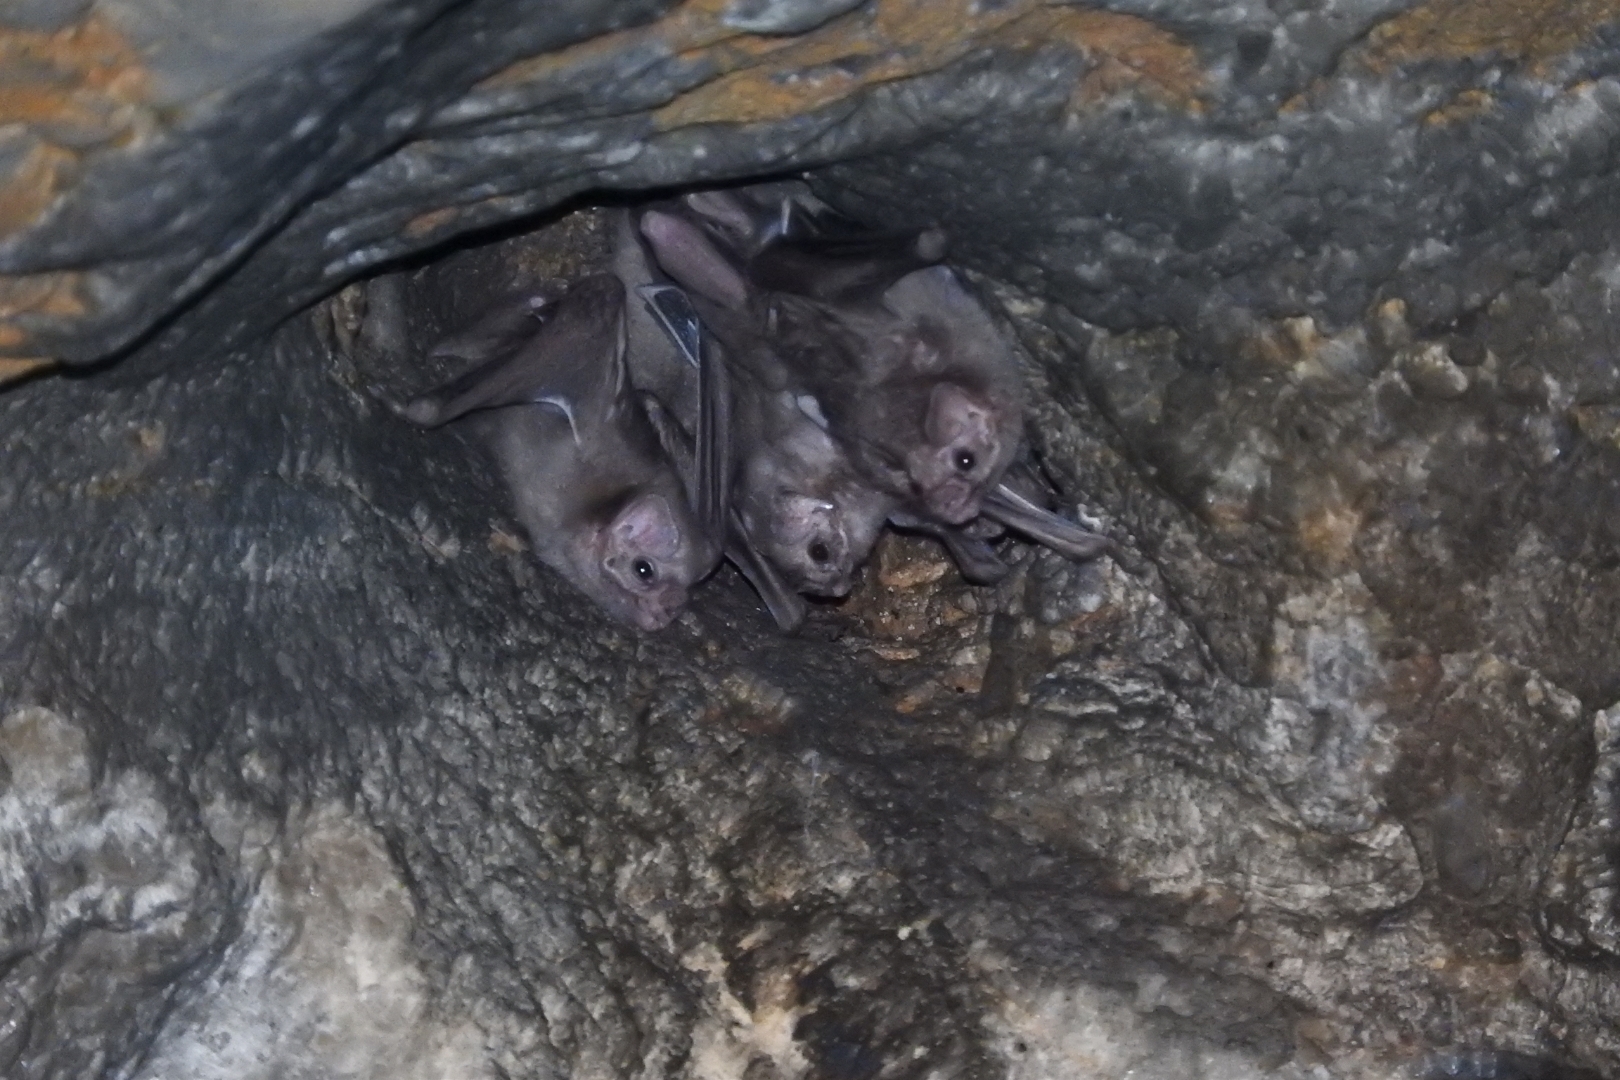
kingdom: Animalia
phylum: Chordata
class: Mammalia
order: Chiroptera
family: Phyllostomidae
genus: Diphylla
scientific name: Diphylla ecaudata
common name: Hairy-legged vampire bat
